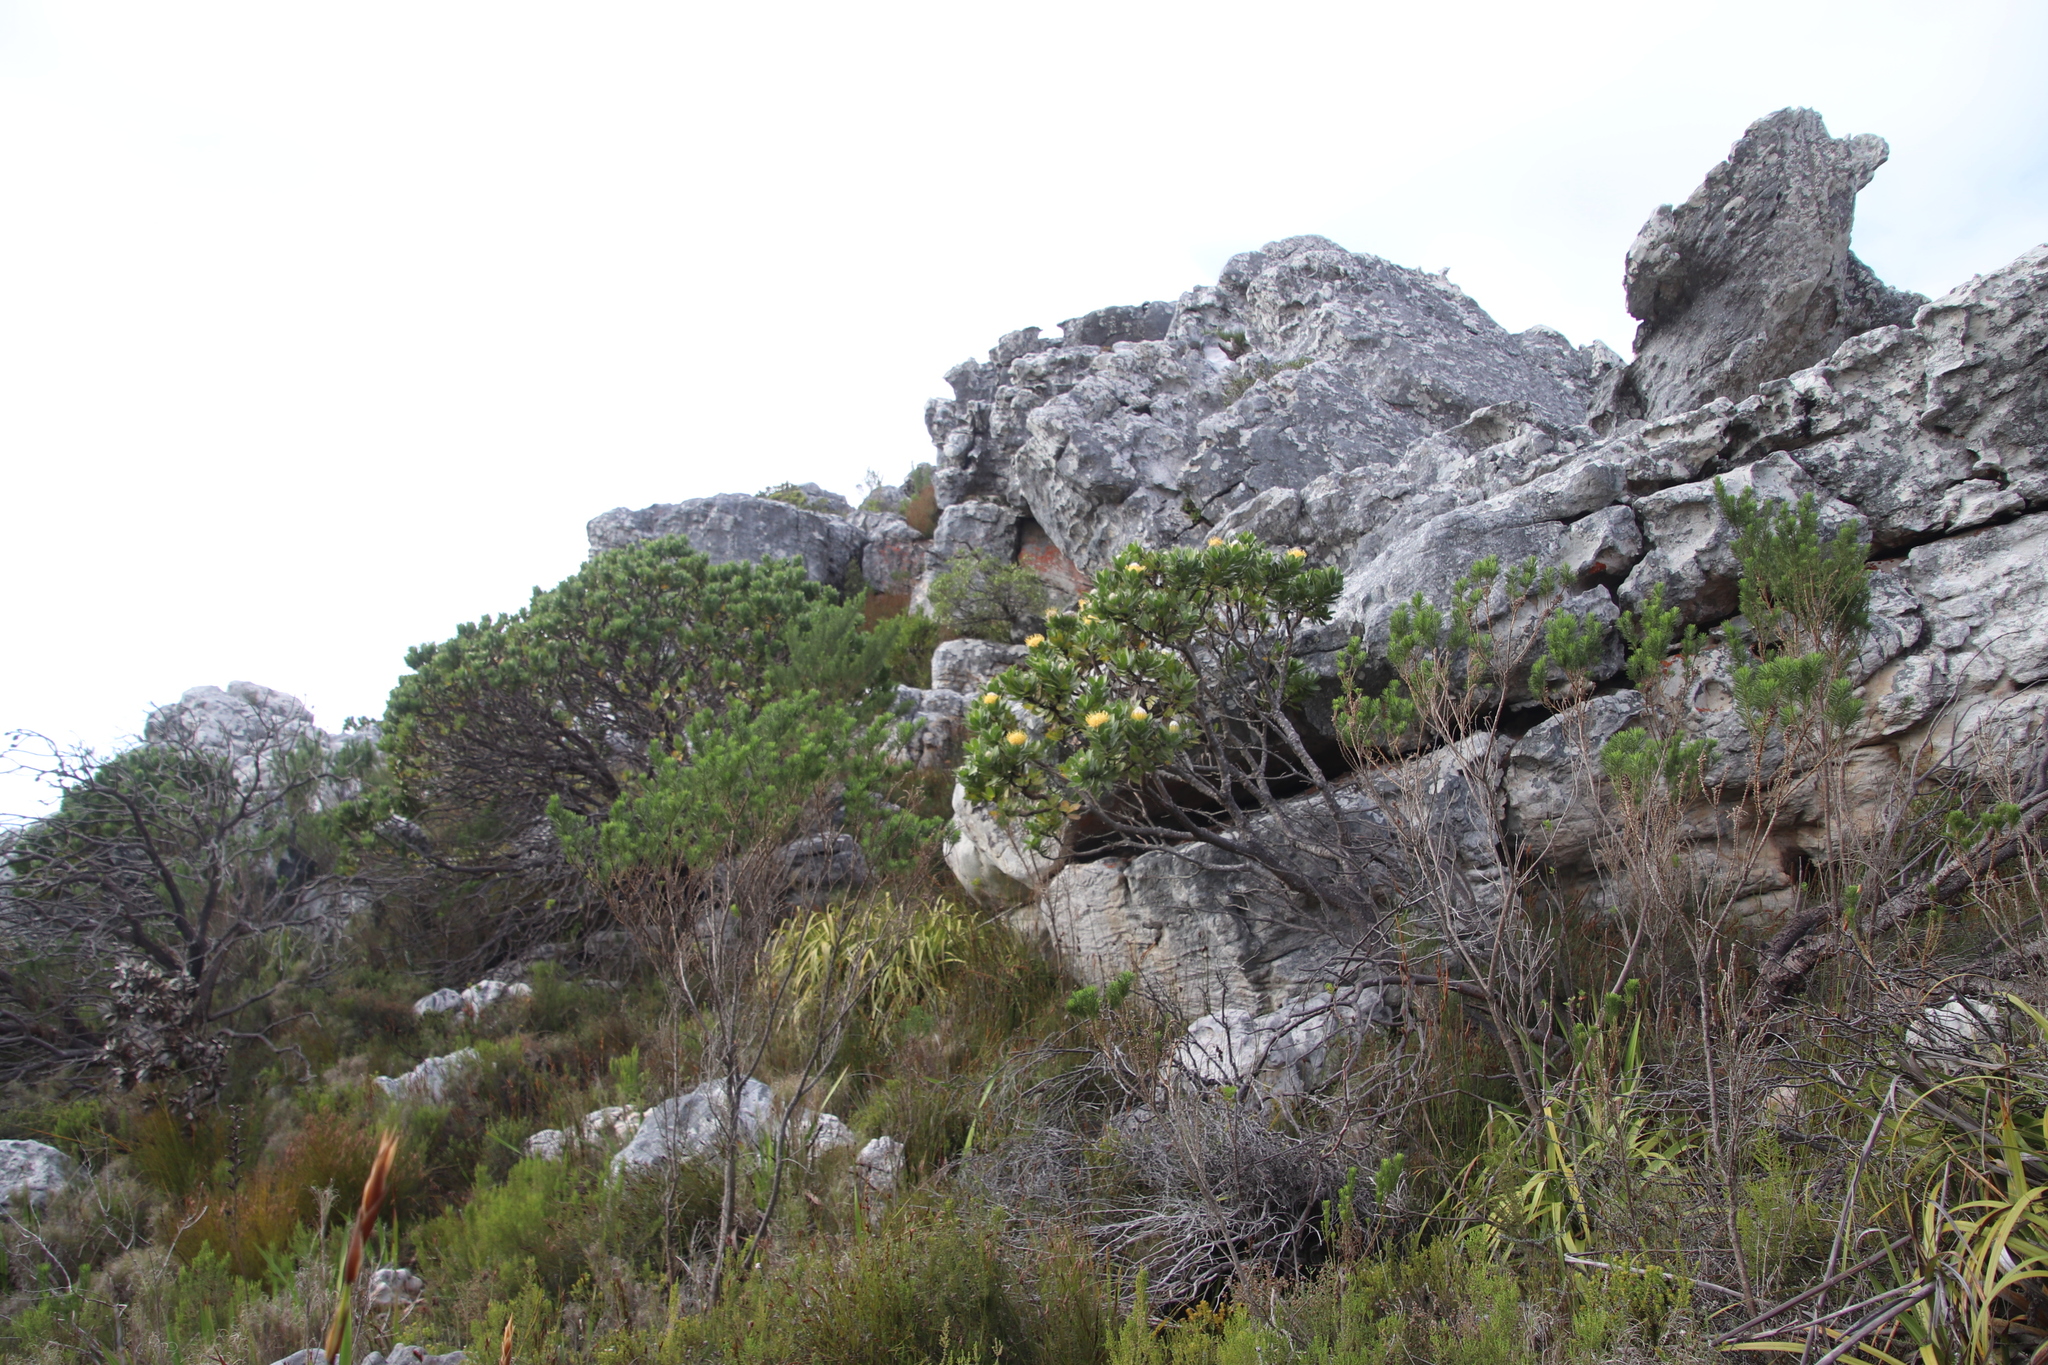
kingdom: Plantae
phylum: Tracheophyta
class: Magnoliopsida
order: Proteales
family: Proteaceae
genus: Leucospermum
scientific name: Leucospermum conocarpodendron
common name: Tree pincushion
